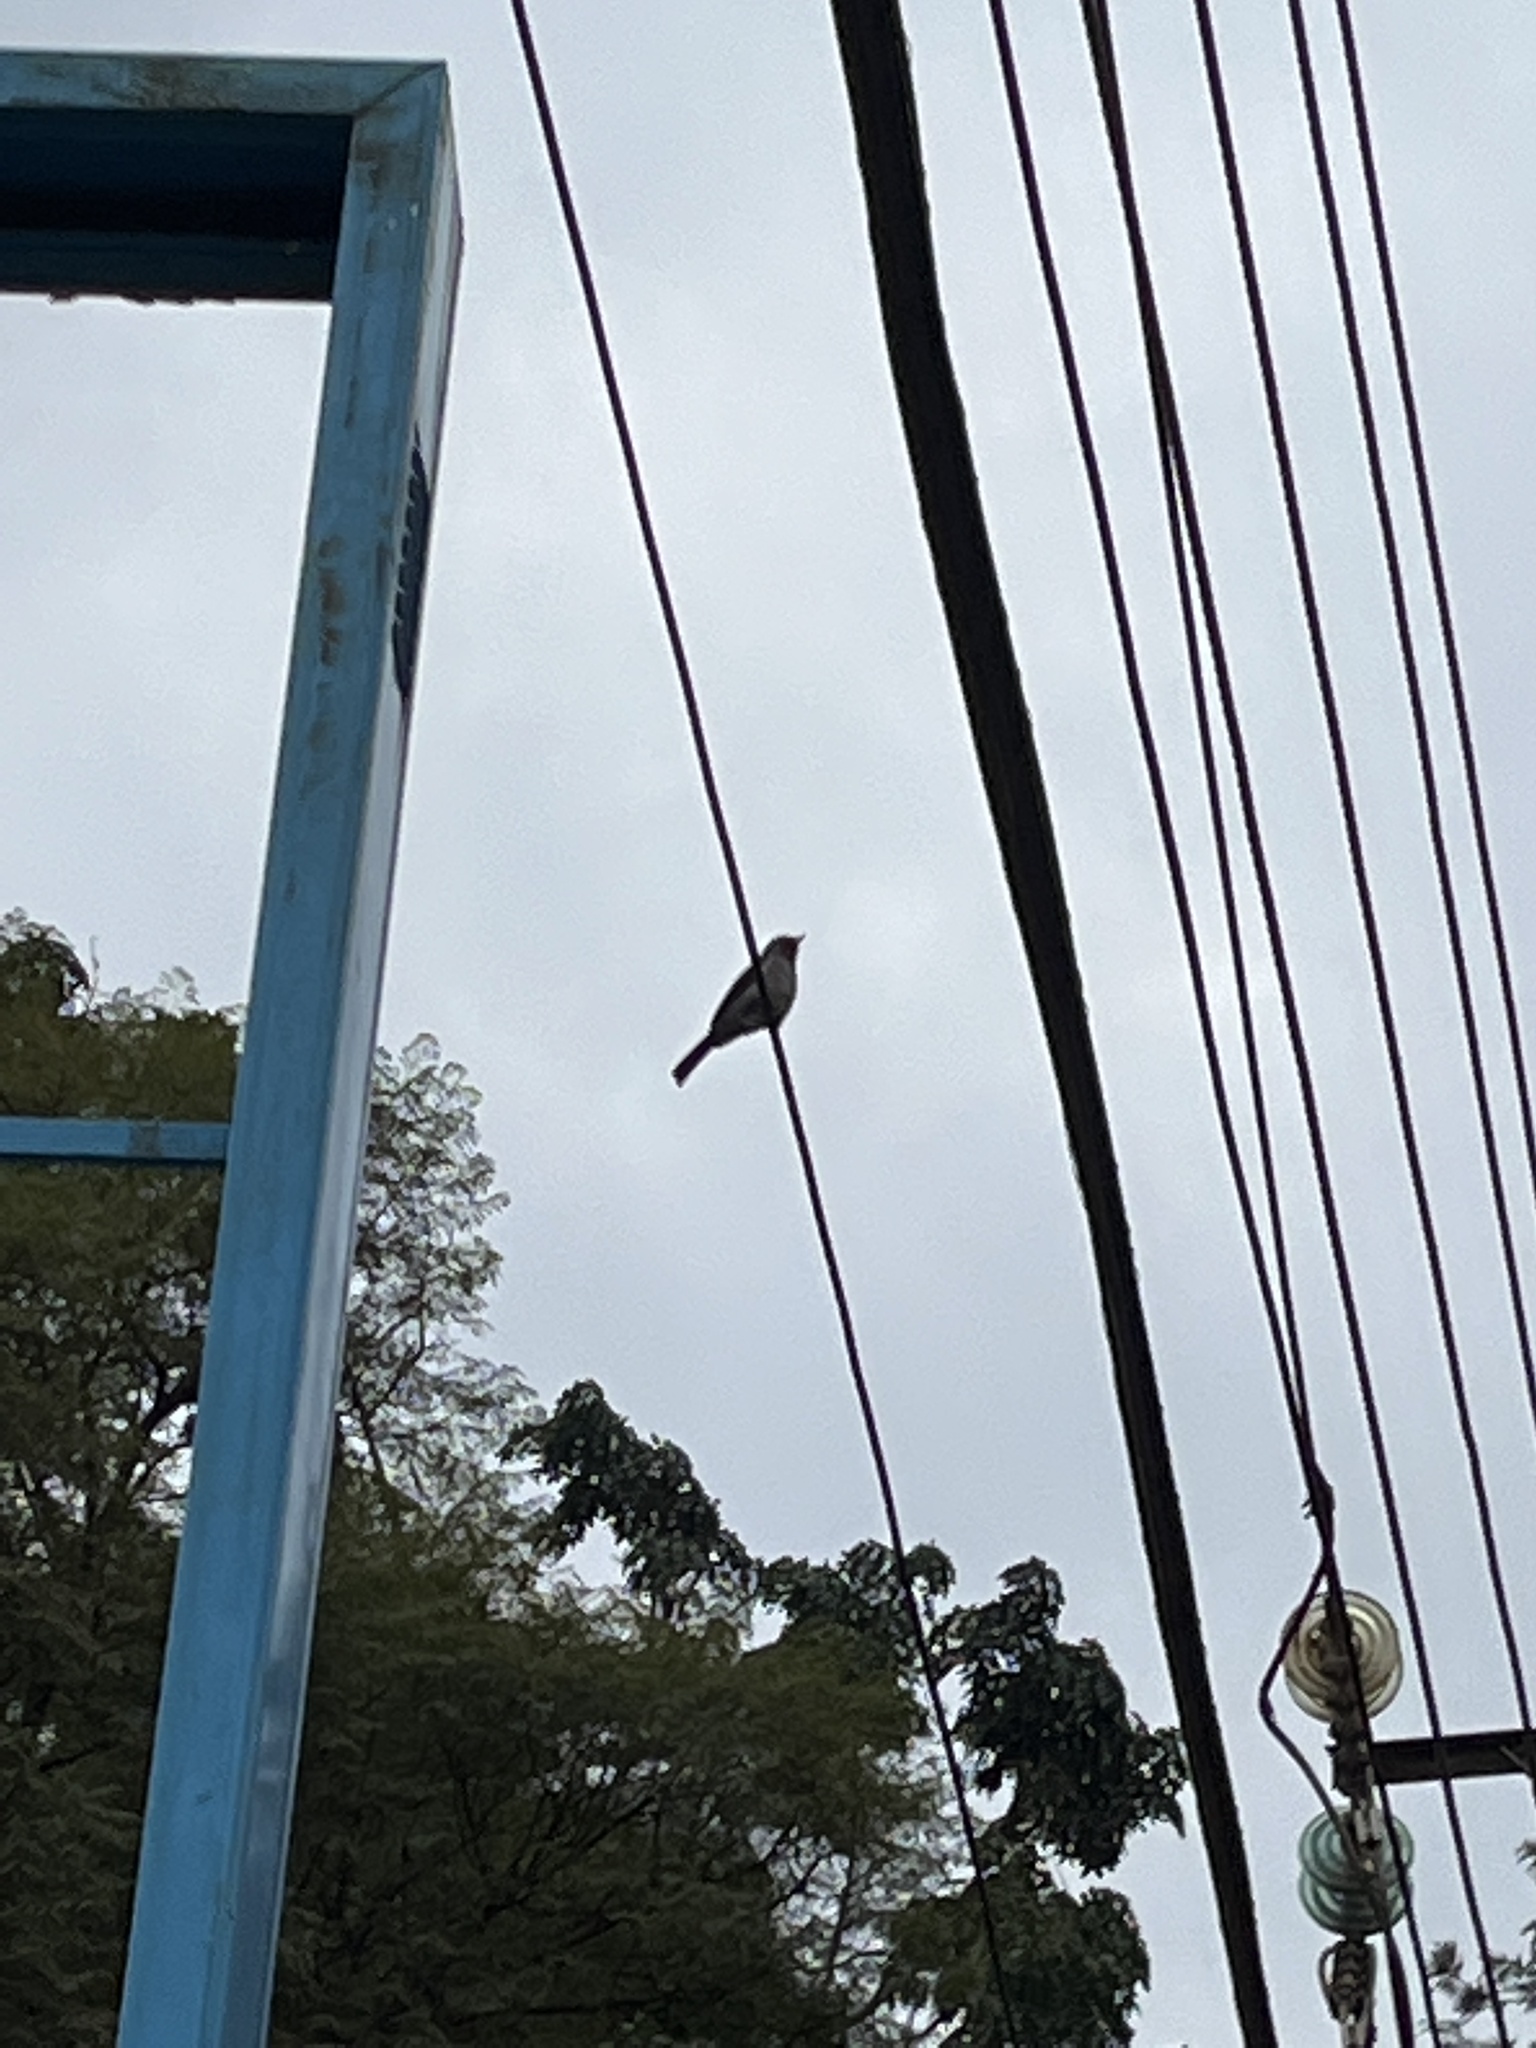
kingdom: Animalia
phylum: Chordata
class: Aves
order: Passeriformes
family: Muscicapidae
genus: Dioptrornis
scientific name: Dioptrornis fischeri
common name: White-eyed slaty flycatcher
